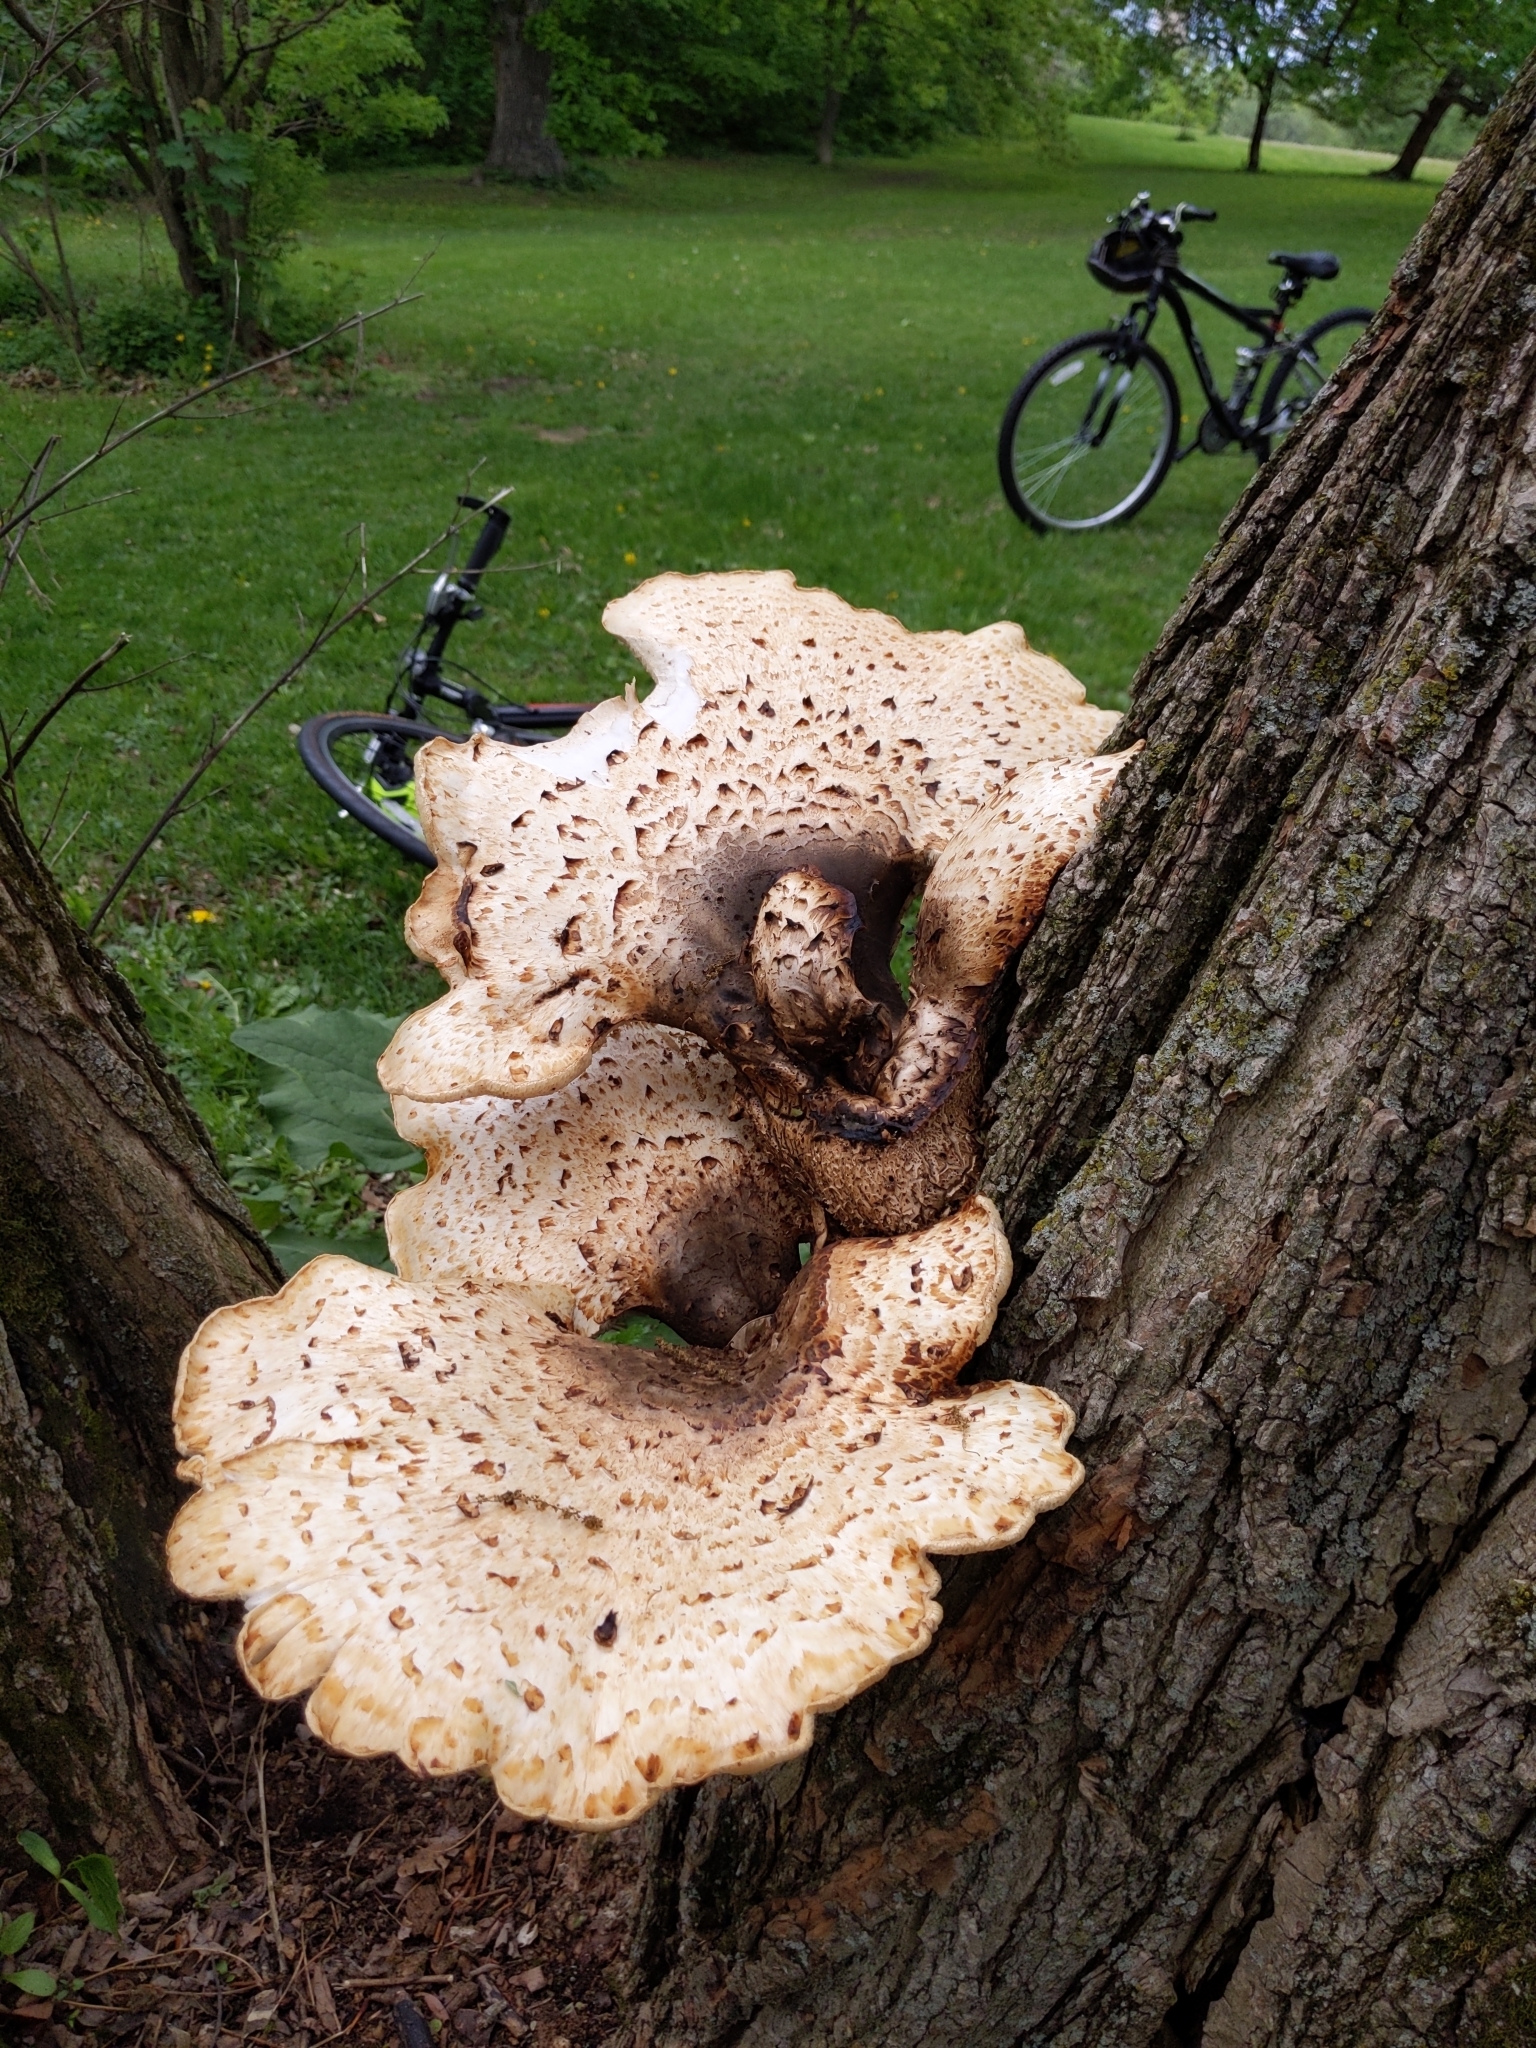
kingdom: Fungi
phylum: Basidiomycota
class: Agaricomycetes
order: Polyporales
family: Polyporaceae
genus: Cerioporus
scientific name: Cerioporus squamosus
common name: Dryad's saddle
